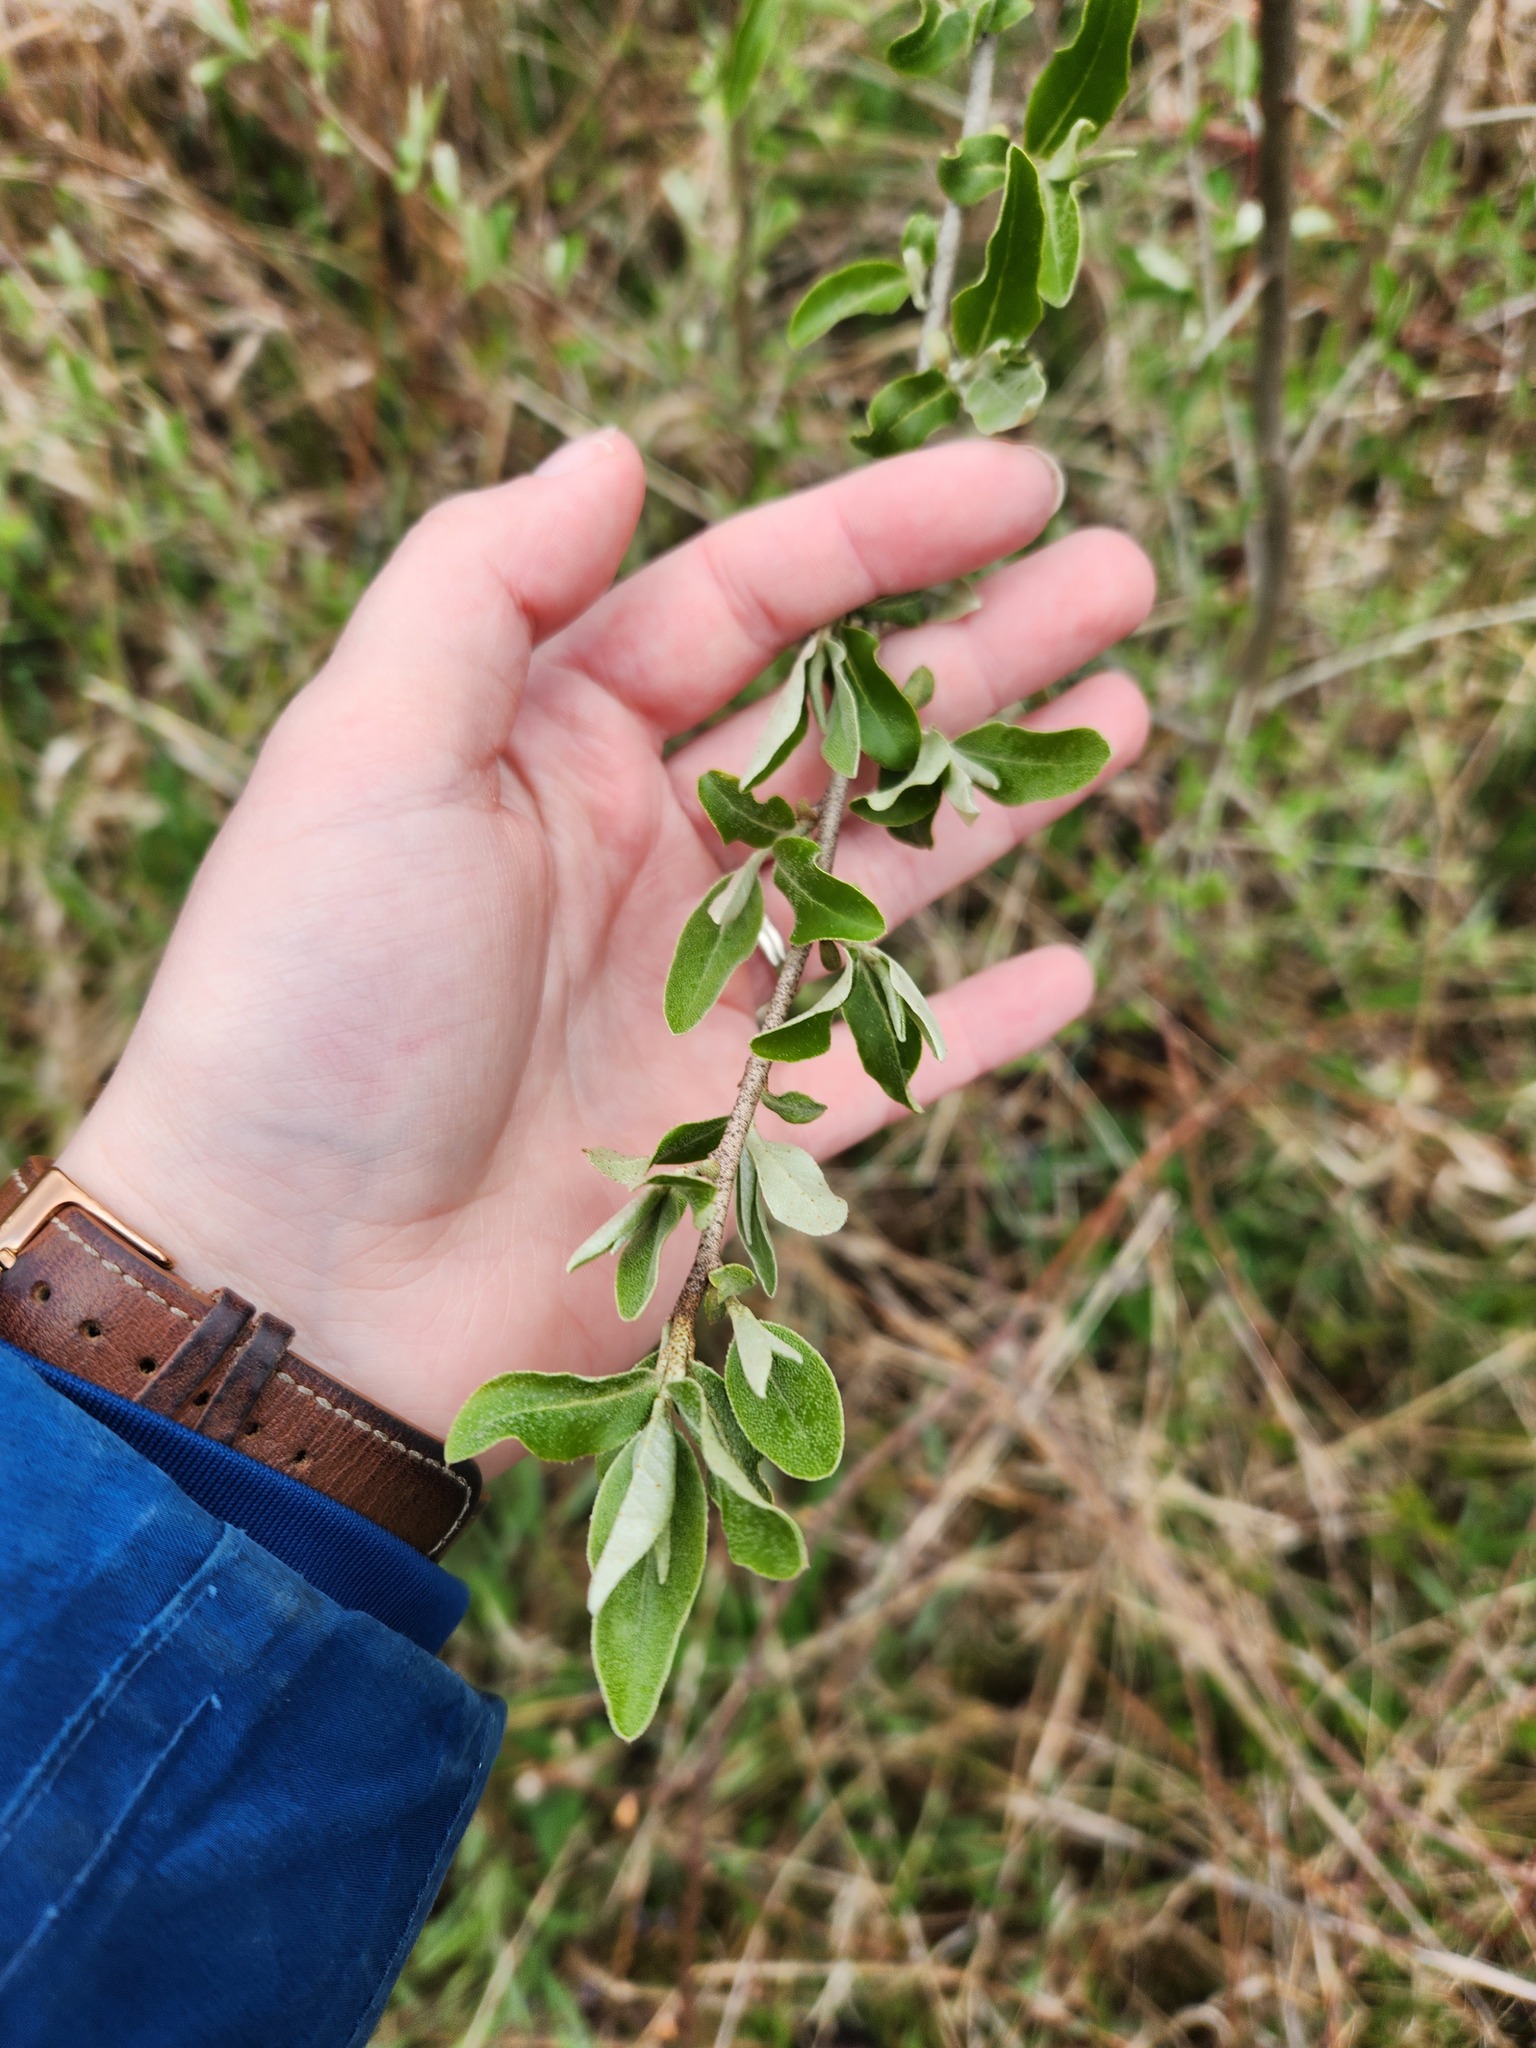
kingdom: Plantae
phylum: Tracheophyta
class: Magnoliopsida
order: Rosales
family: Elaeagnaceae
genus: Elaeagnus
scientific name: Elaeagnus umbellata
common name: Autumn olive
